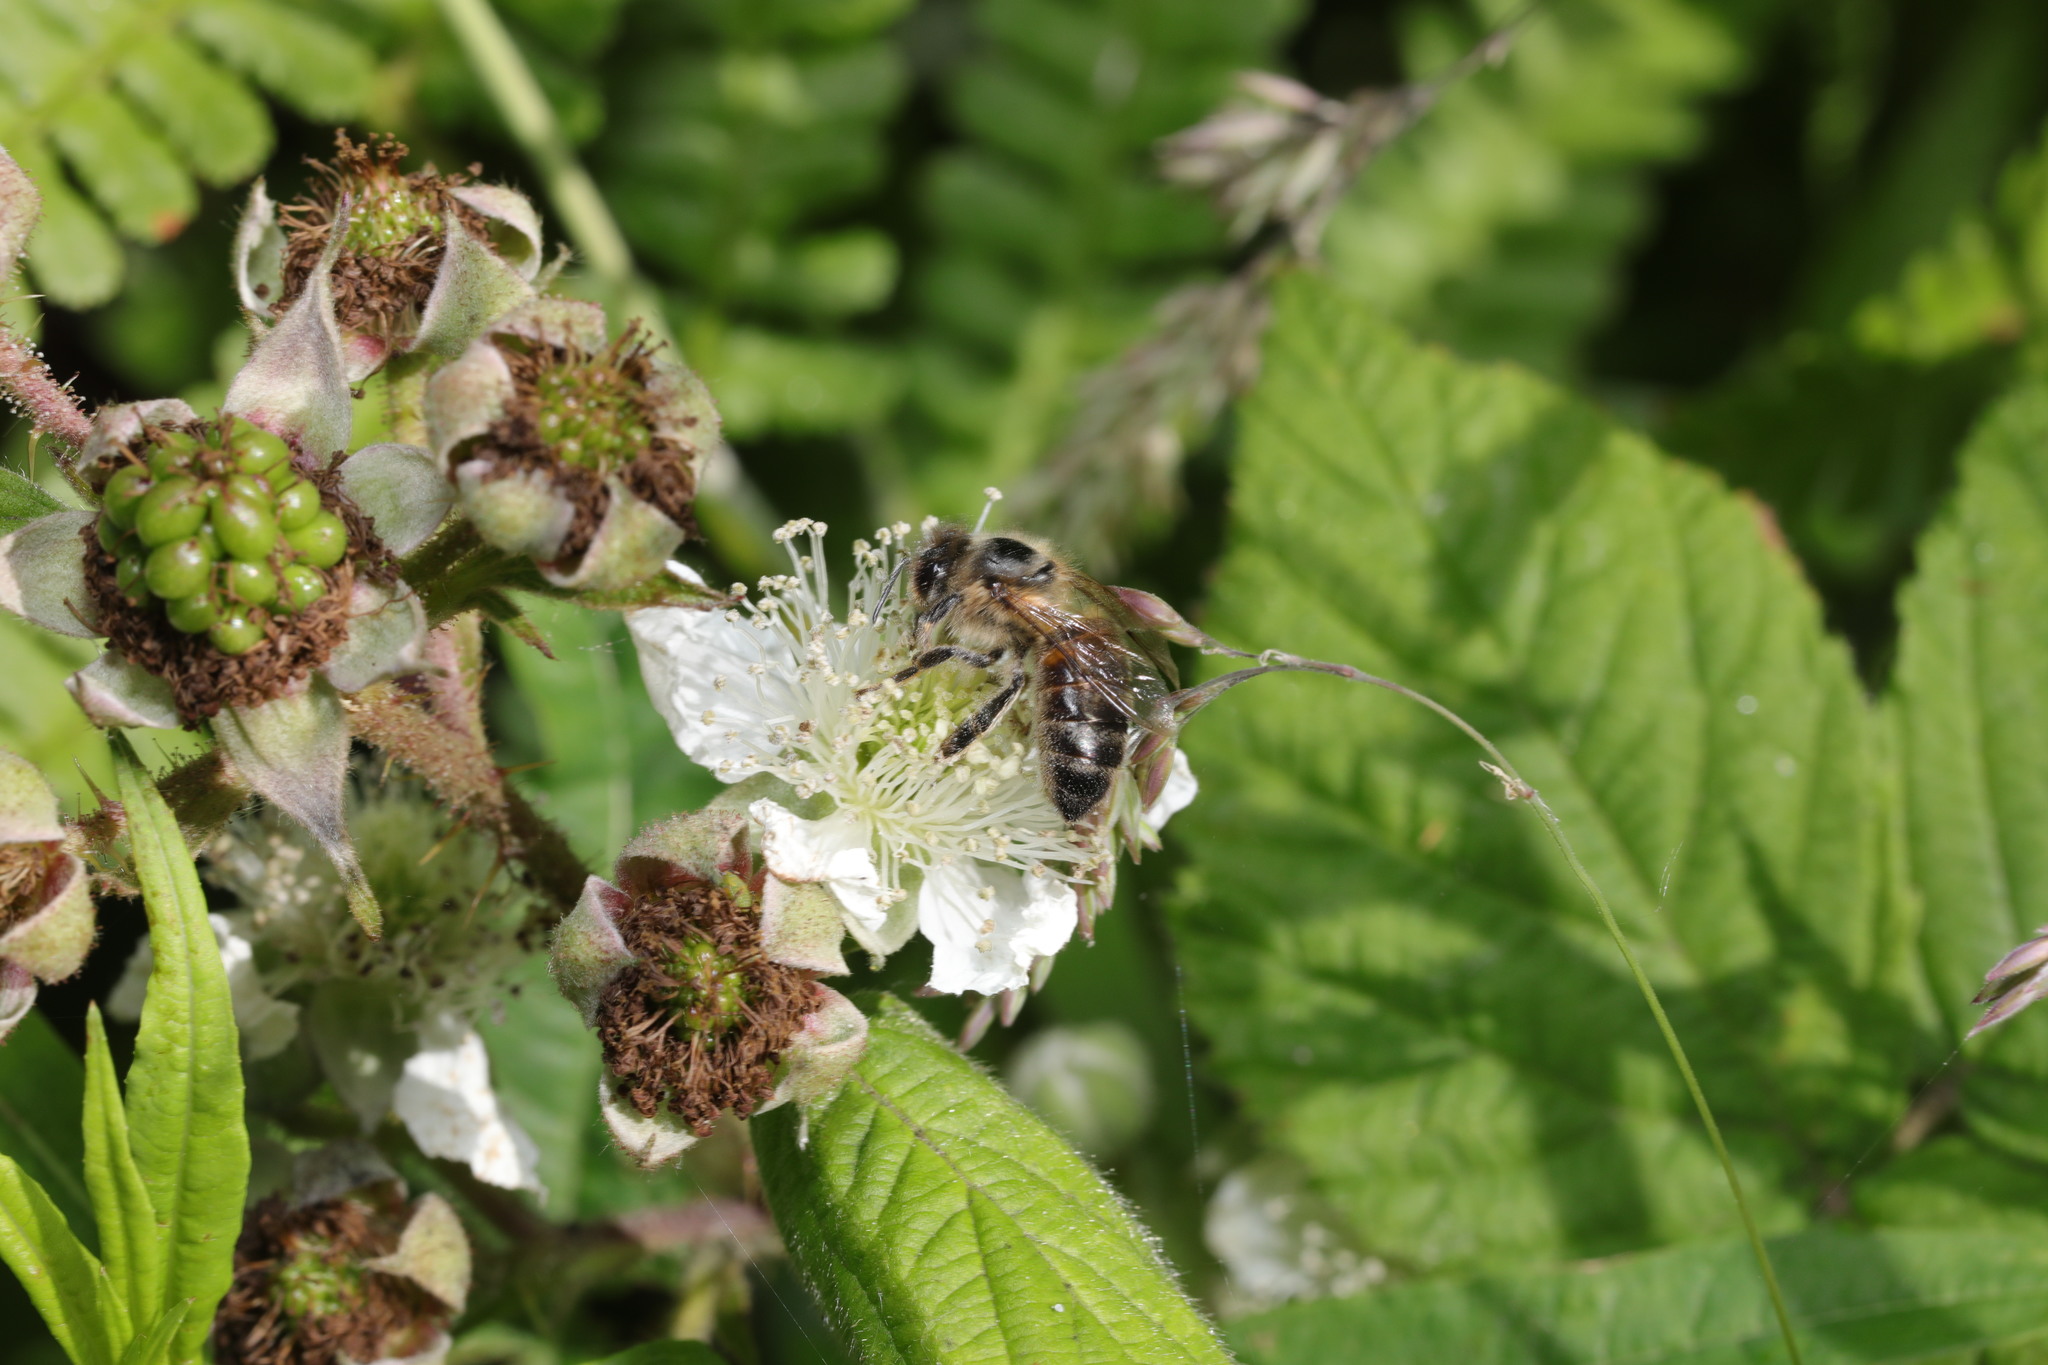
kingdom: Animalia
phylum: Arthropoda
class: Insecta
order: Hymenoptera
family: Apidae
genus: Apis
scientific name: Apis mellifera
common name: Honey bee
